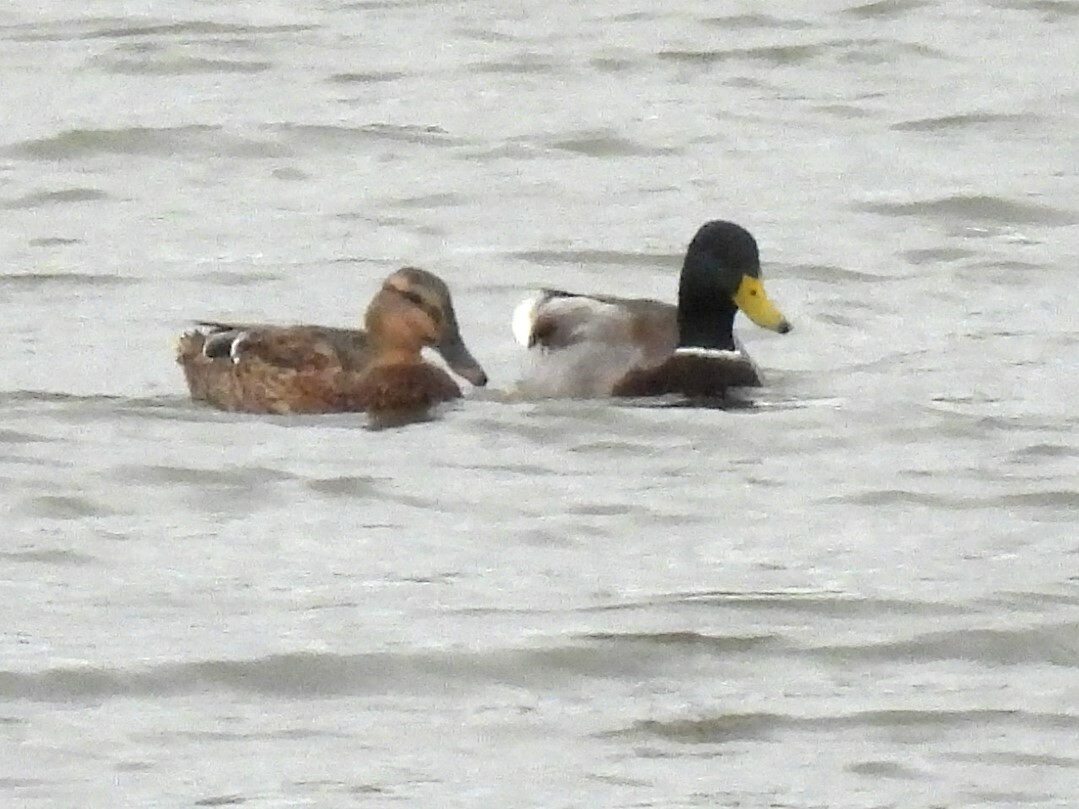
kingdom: Animalia
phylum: Chordata
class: Aves
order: Anseriformes
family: Anatidae
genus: Anas
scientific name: Anas platyrhynchos
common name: Mallard
